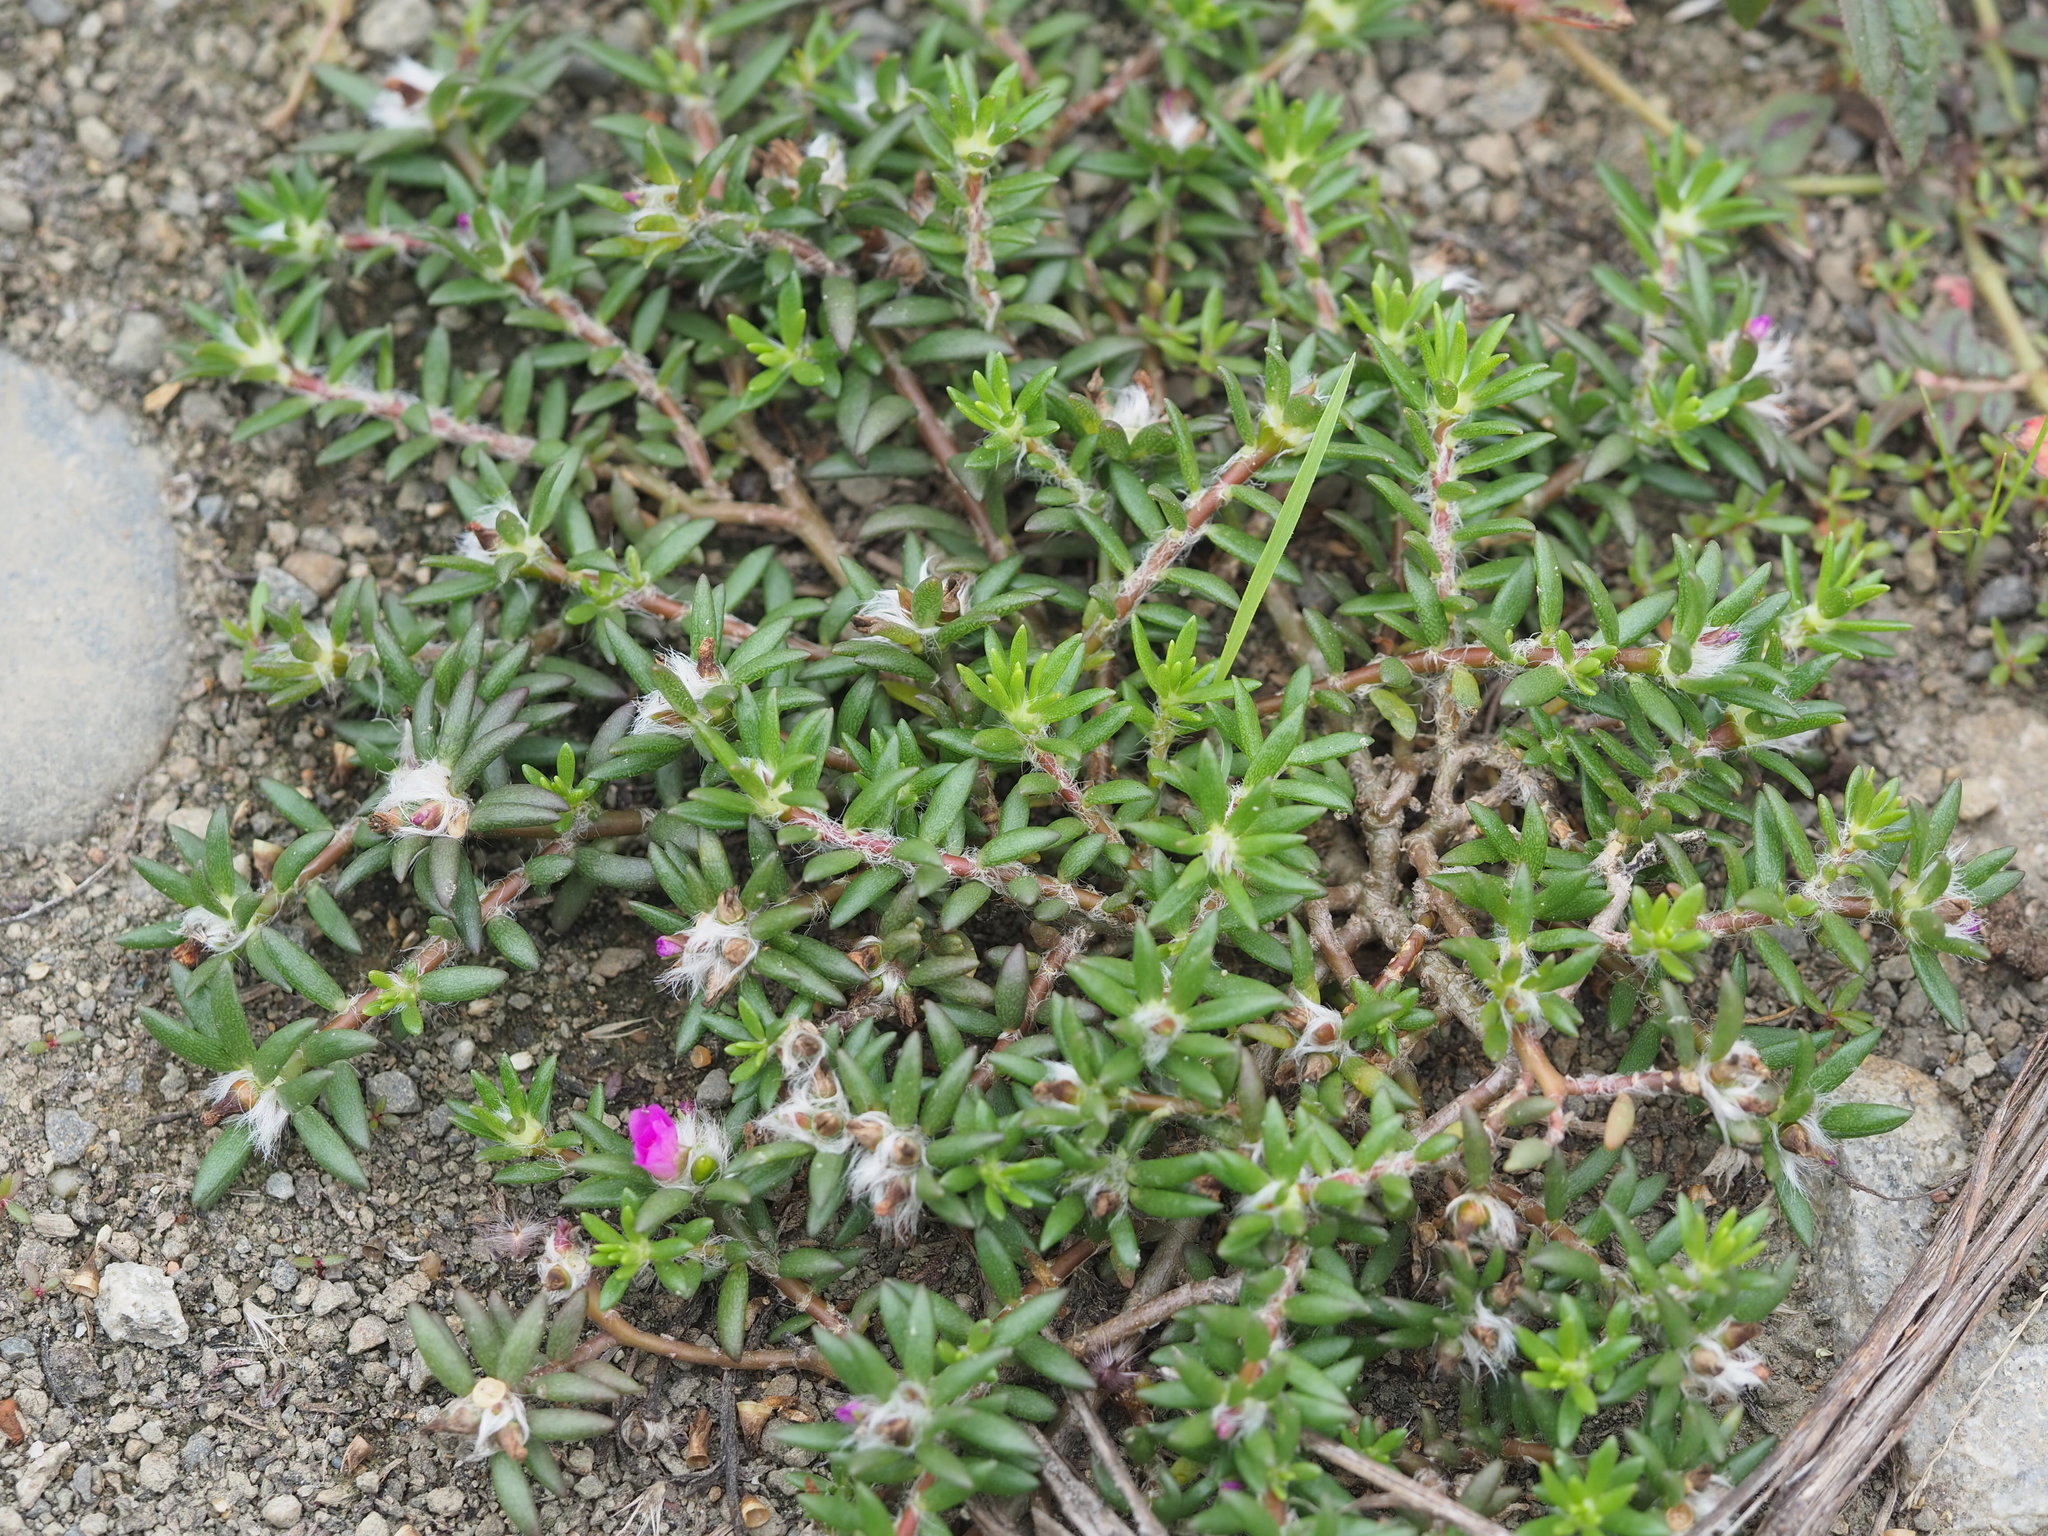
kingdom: Plantae
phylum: Tracheophyta
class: Magnoliopsida
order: Caryophyllales
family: Portulacaceae
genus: Portulaca
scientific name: Portulaca pilosa
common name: Kiss me quick
